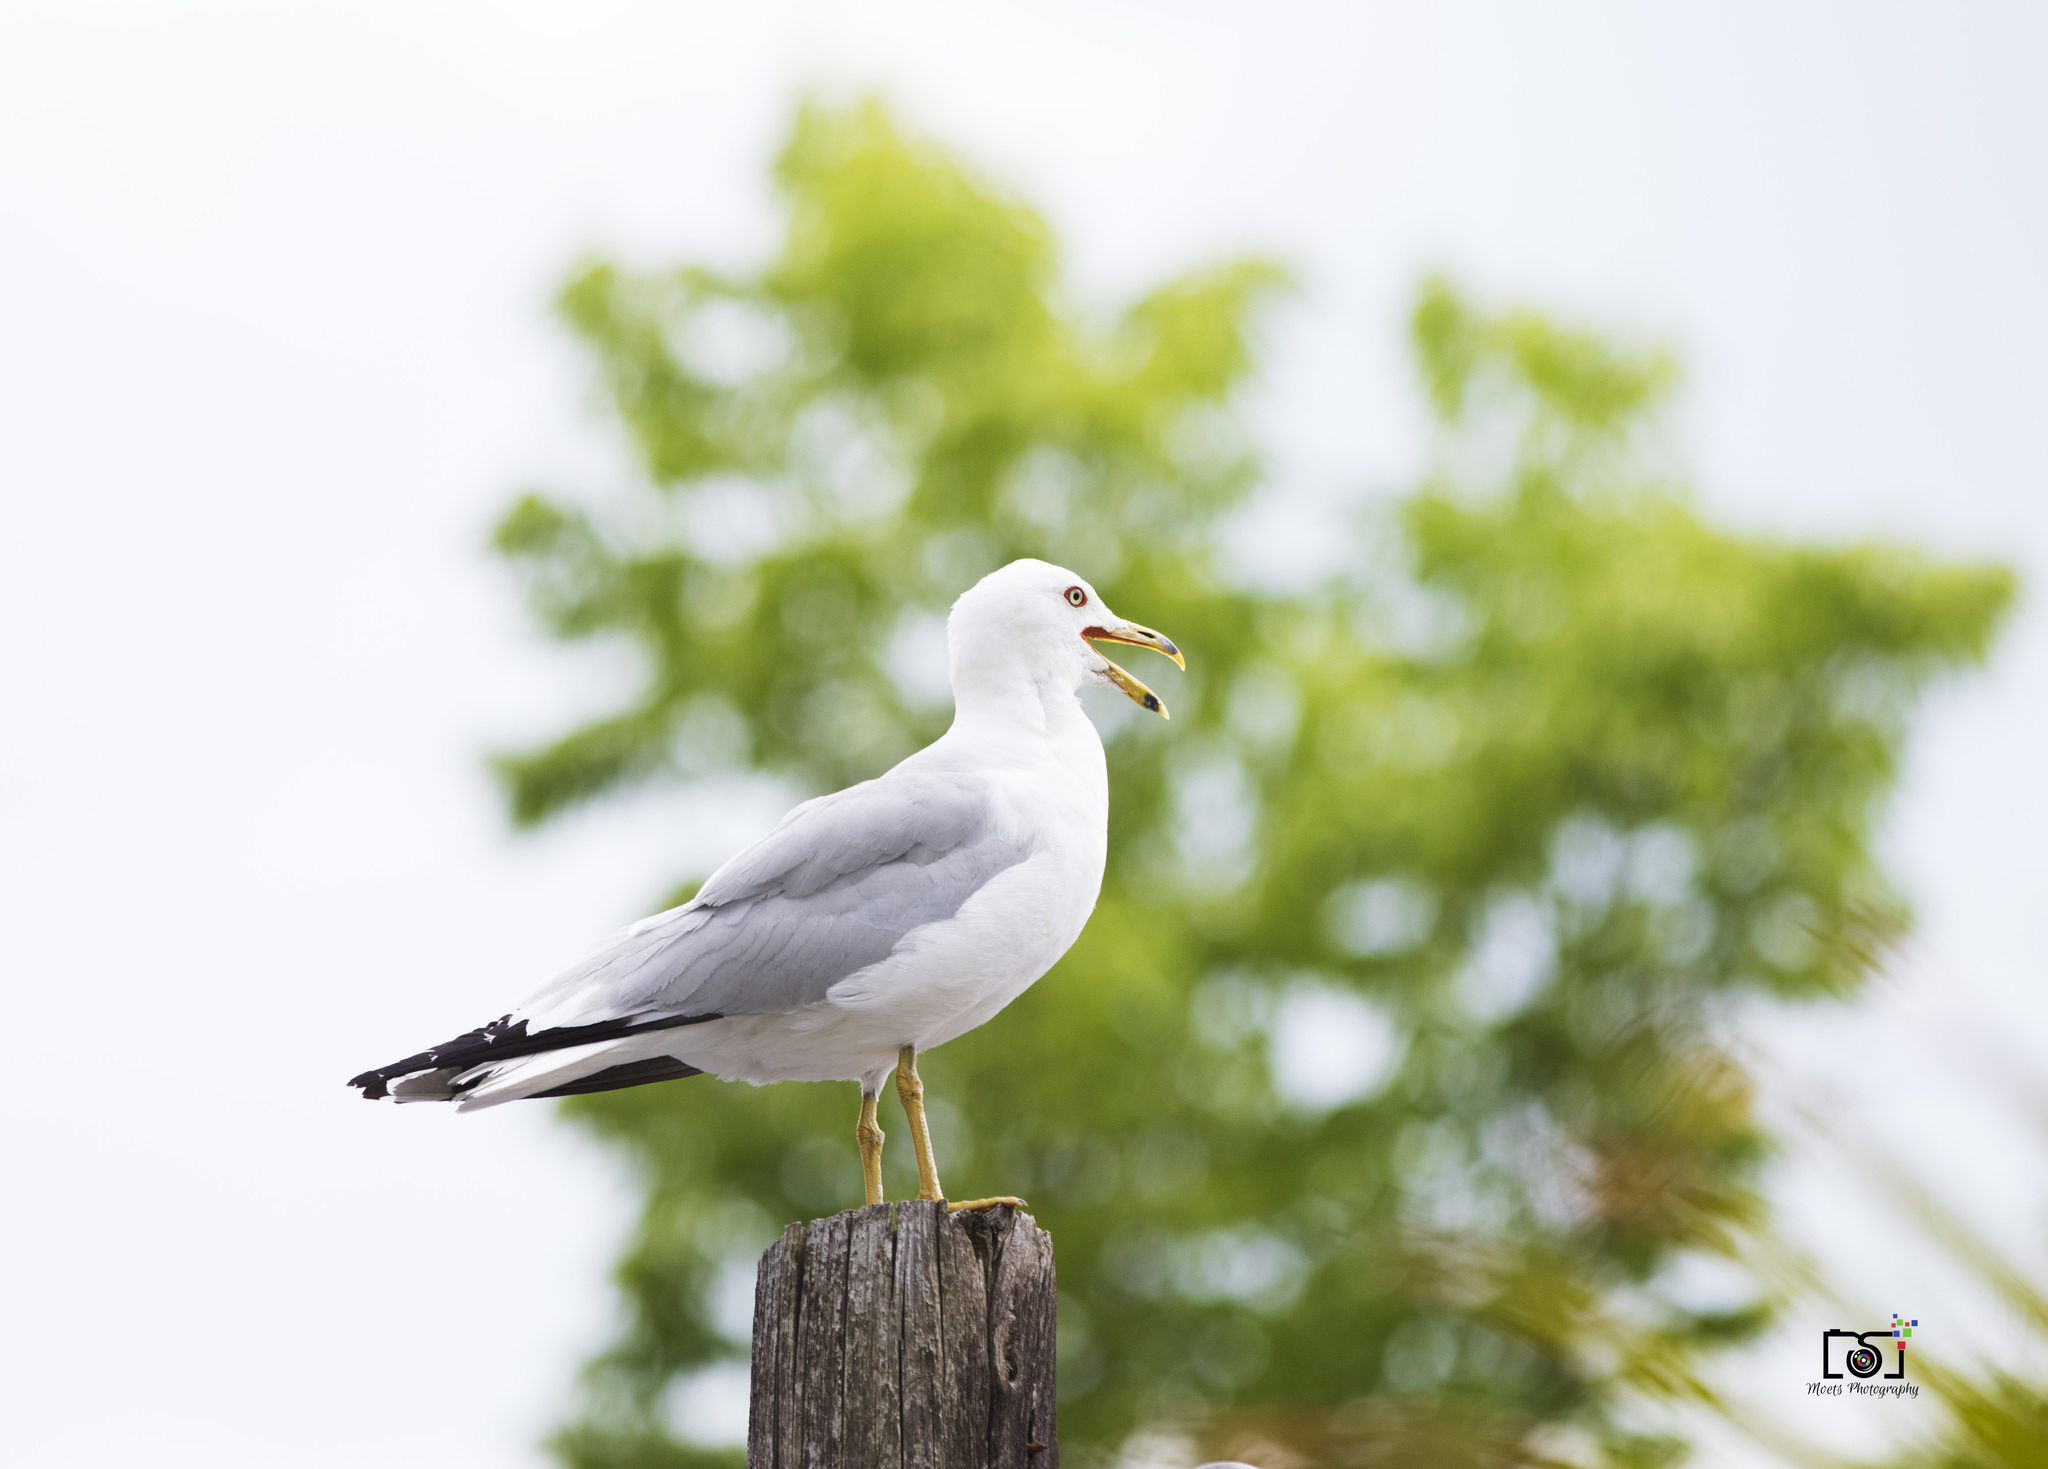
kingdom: Animalia
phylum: Chordata
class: Aves
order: Charadriiformes
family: Laridae
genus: Larus
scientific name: Larus delawarensis
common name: Ring-billed gull
